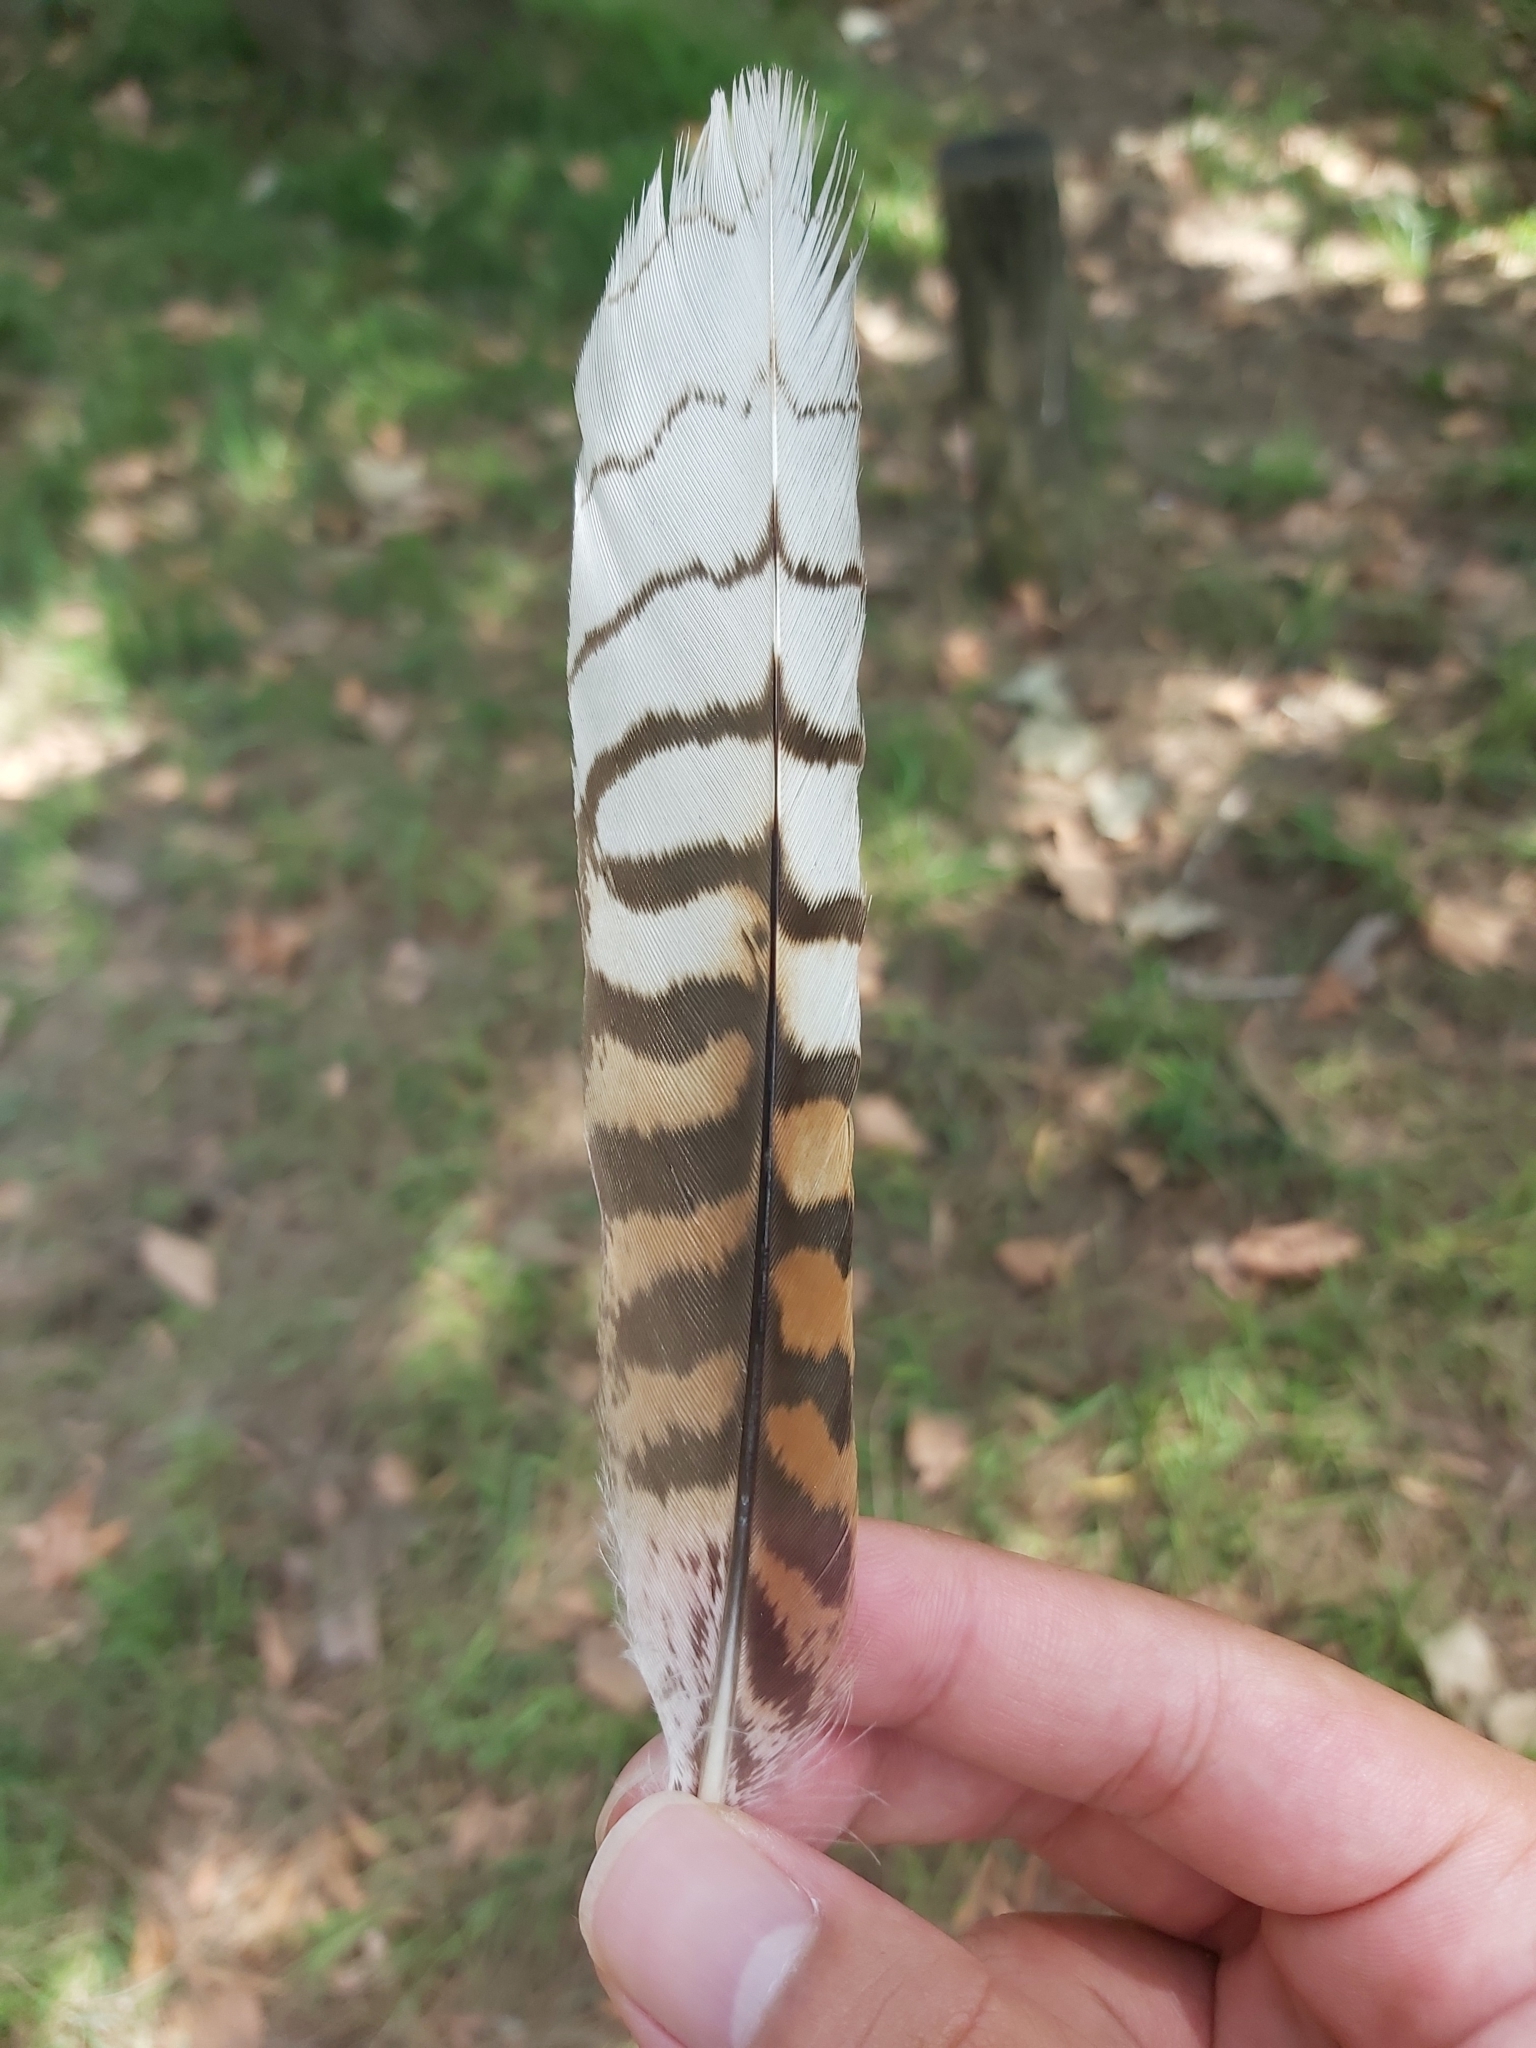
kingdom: Animalia
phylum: Chordata
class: Aves
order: Coraciiformes
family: Alcedinidae
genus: Dacelo
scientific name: Dacelo novaeguineae
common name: Laughing kookaburra
